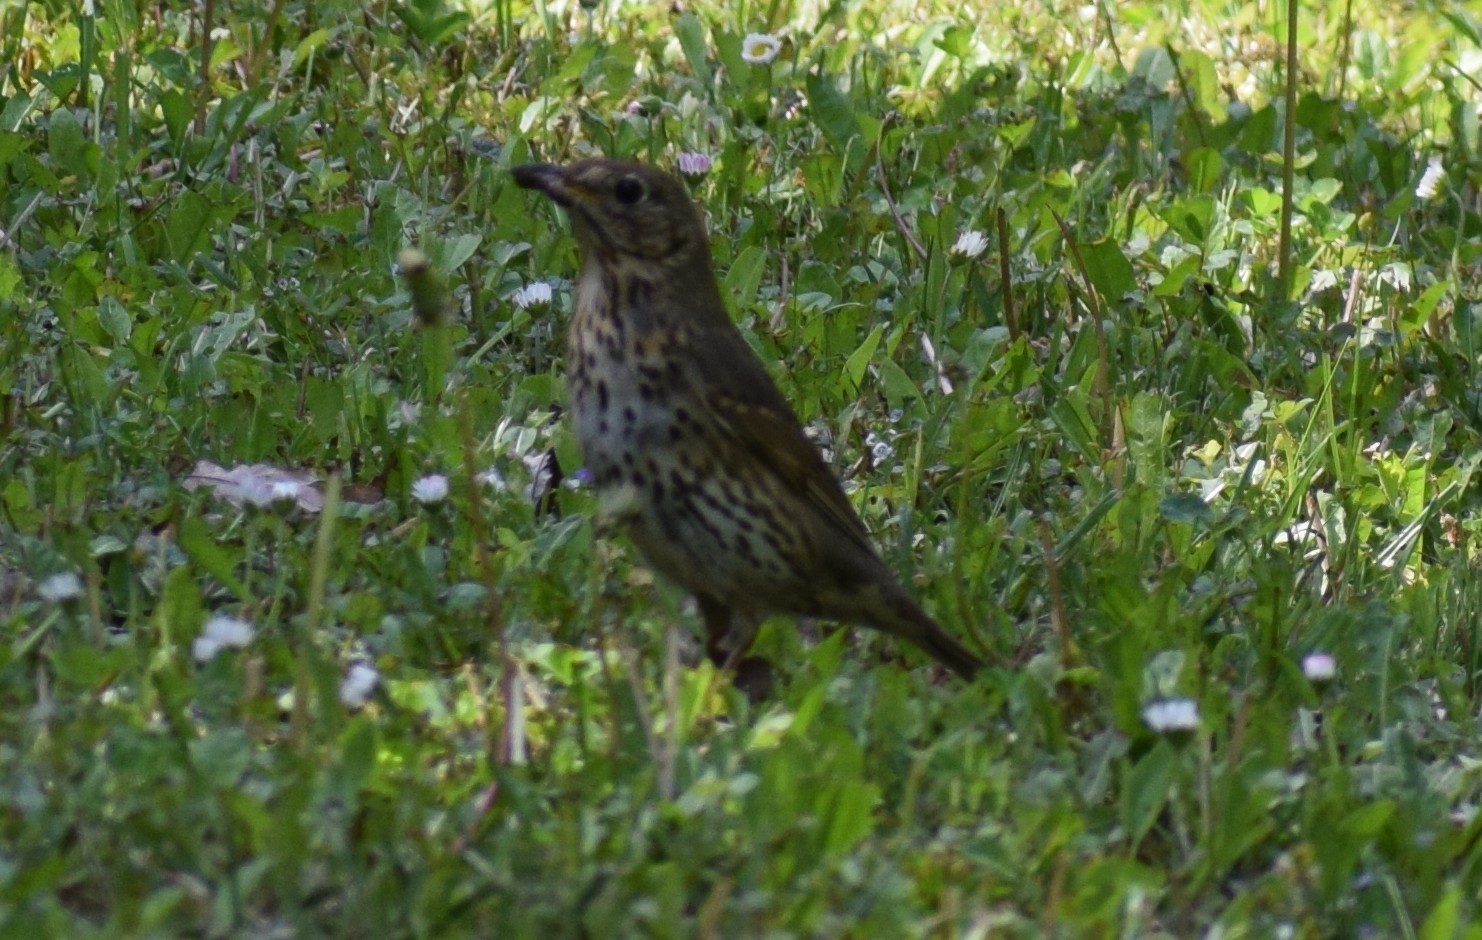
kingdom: Animalia
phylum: Chordata
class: Aves
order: Passeriformes
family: Turdidae
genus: Turdus
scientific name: Turdus philomelos
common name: Song thrush
